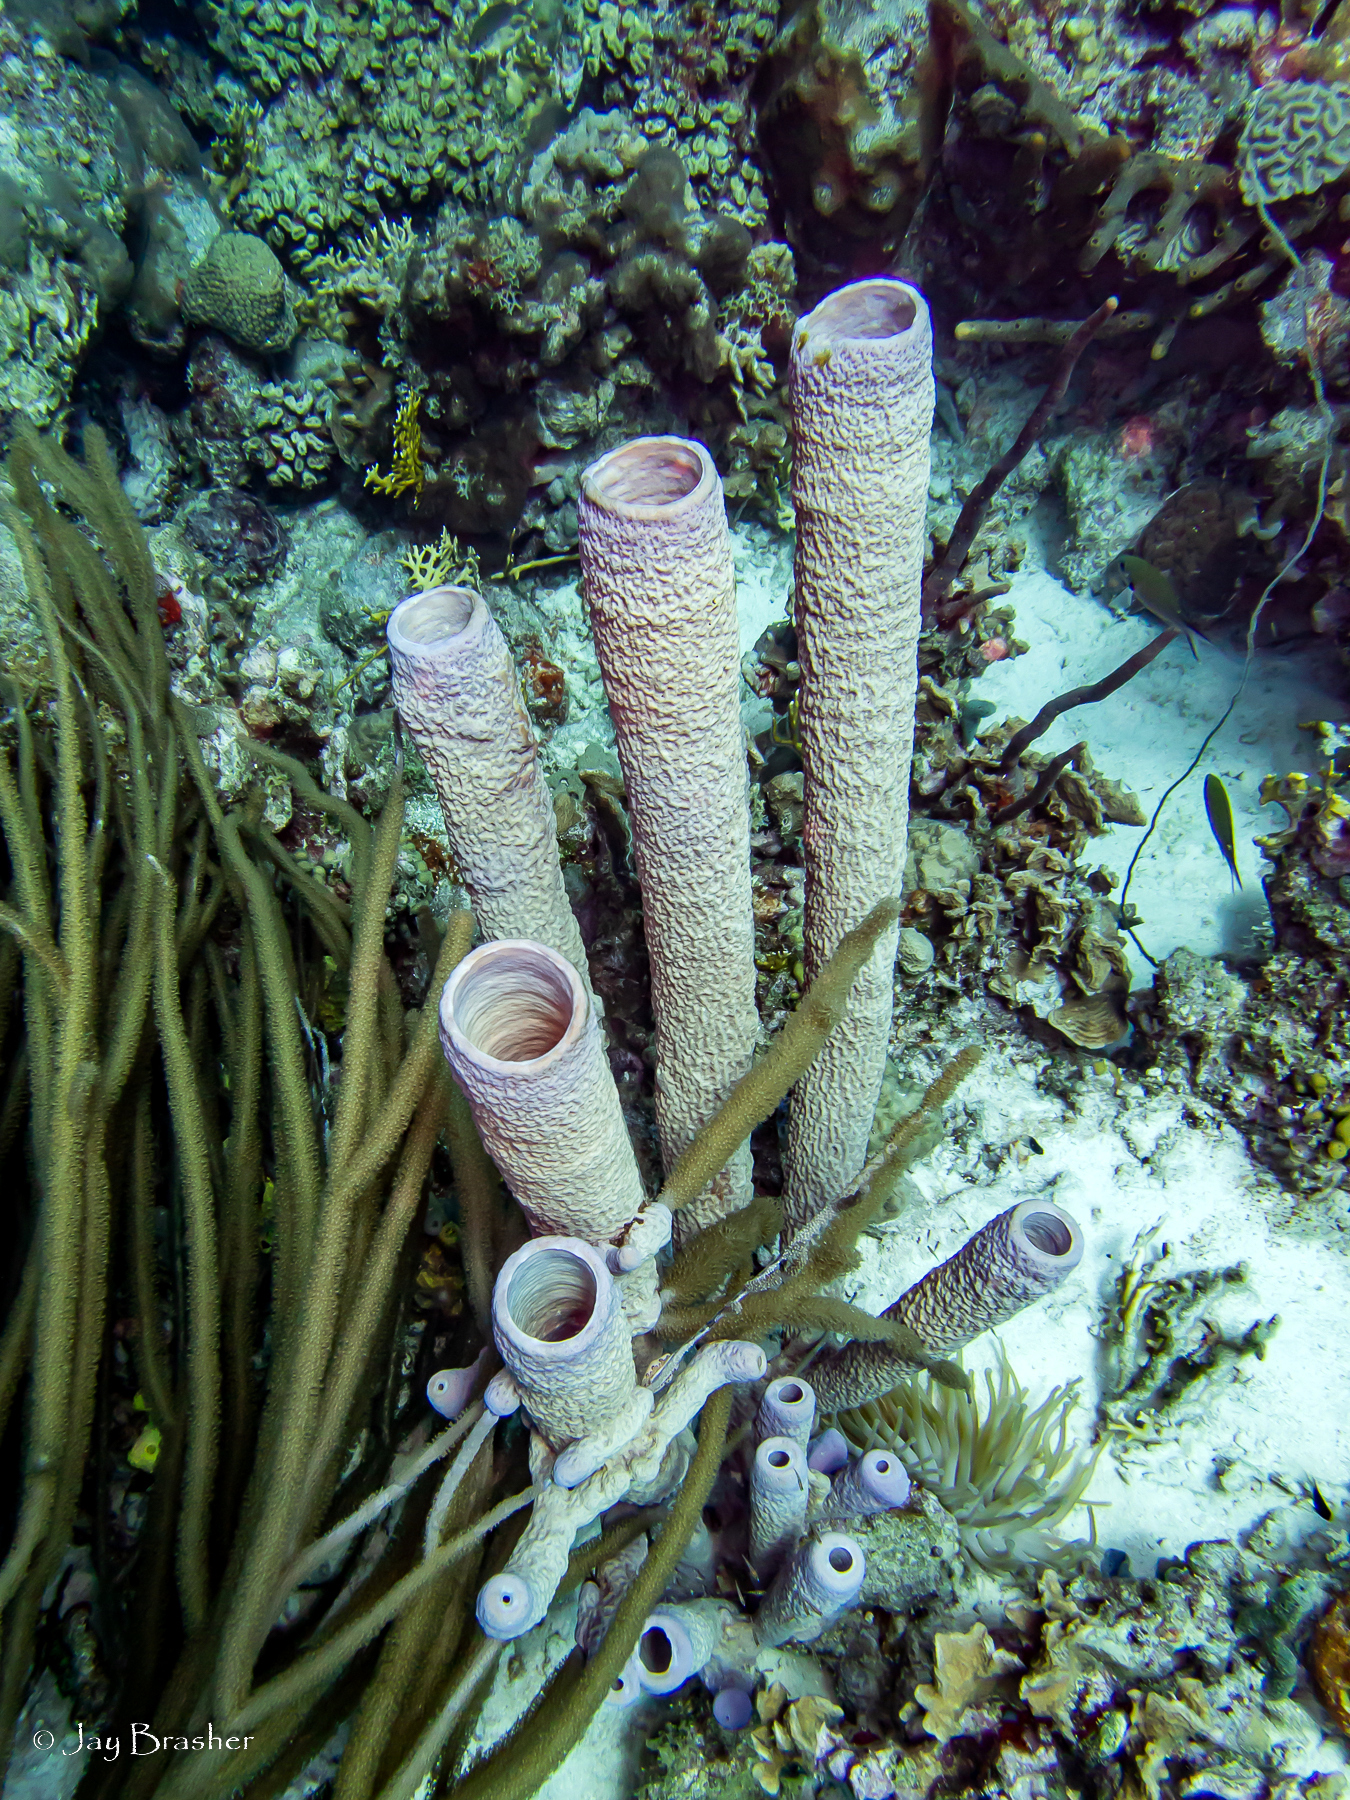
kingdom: Animalia
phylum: Porifera
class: Demospongiae
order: Verongiida
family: Aplysinidae
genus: Aplysina
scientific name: Aplysina archeri
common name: Stove-pipe sponge
